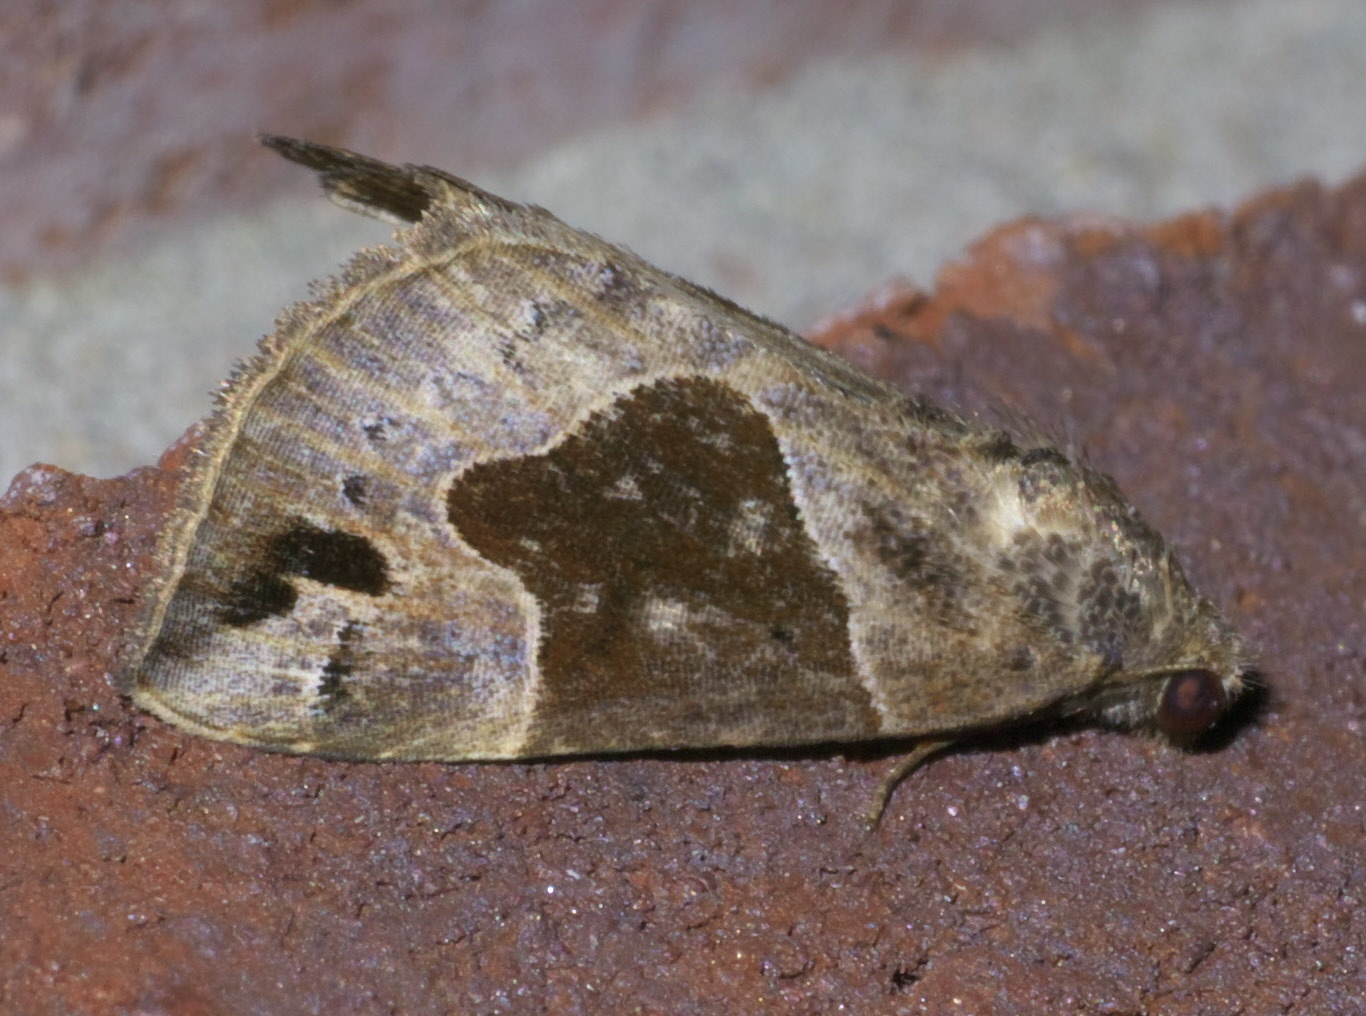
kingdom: Animalia
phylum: Arthropoda
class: Insecta
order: Lepidoptera
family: Erebidae
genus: Hypena
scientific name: Hypena manalis
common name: Flowing-line bomolocha moth
